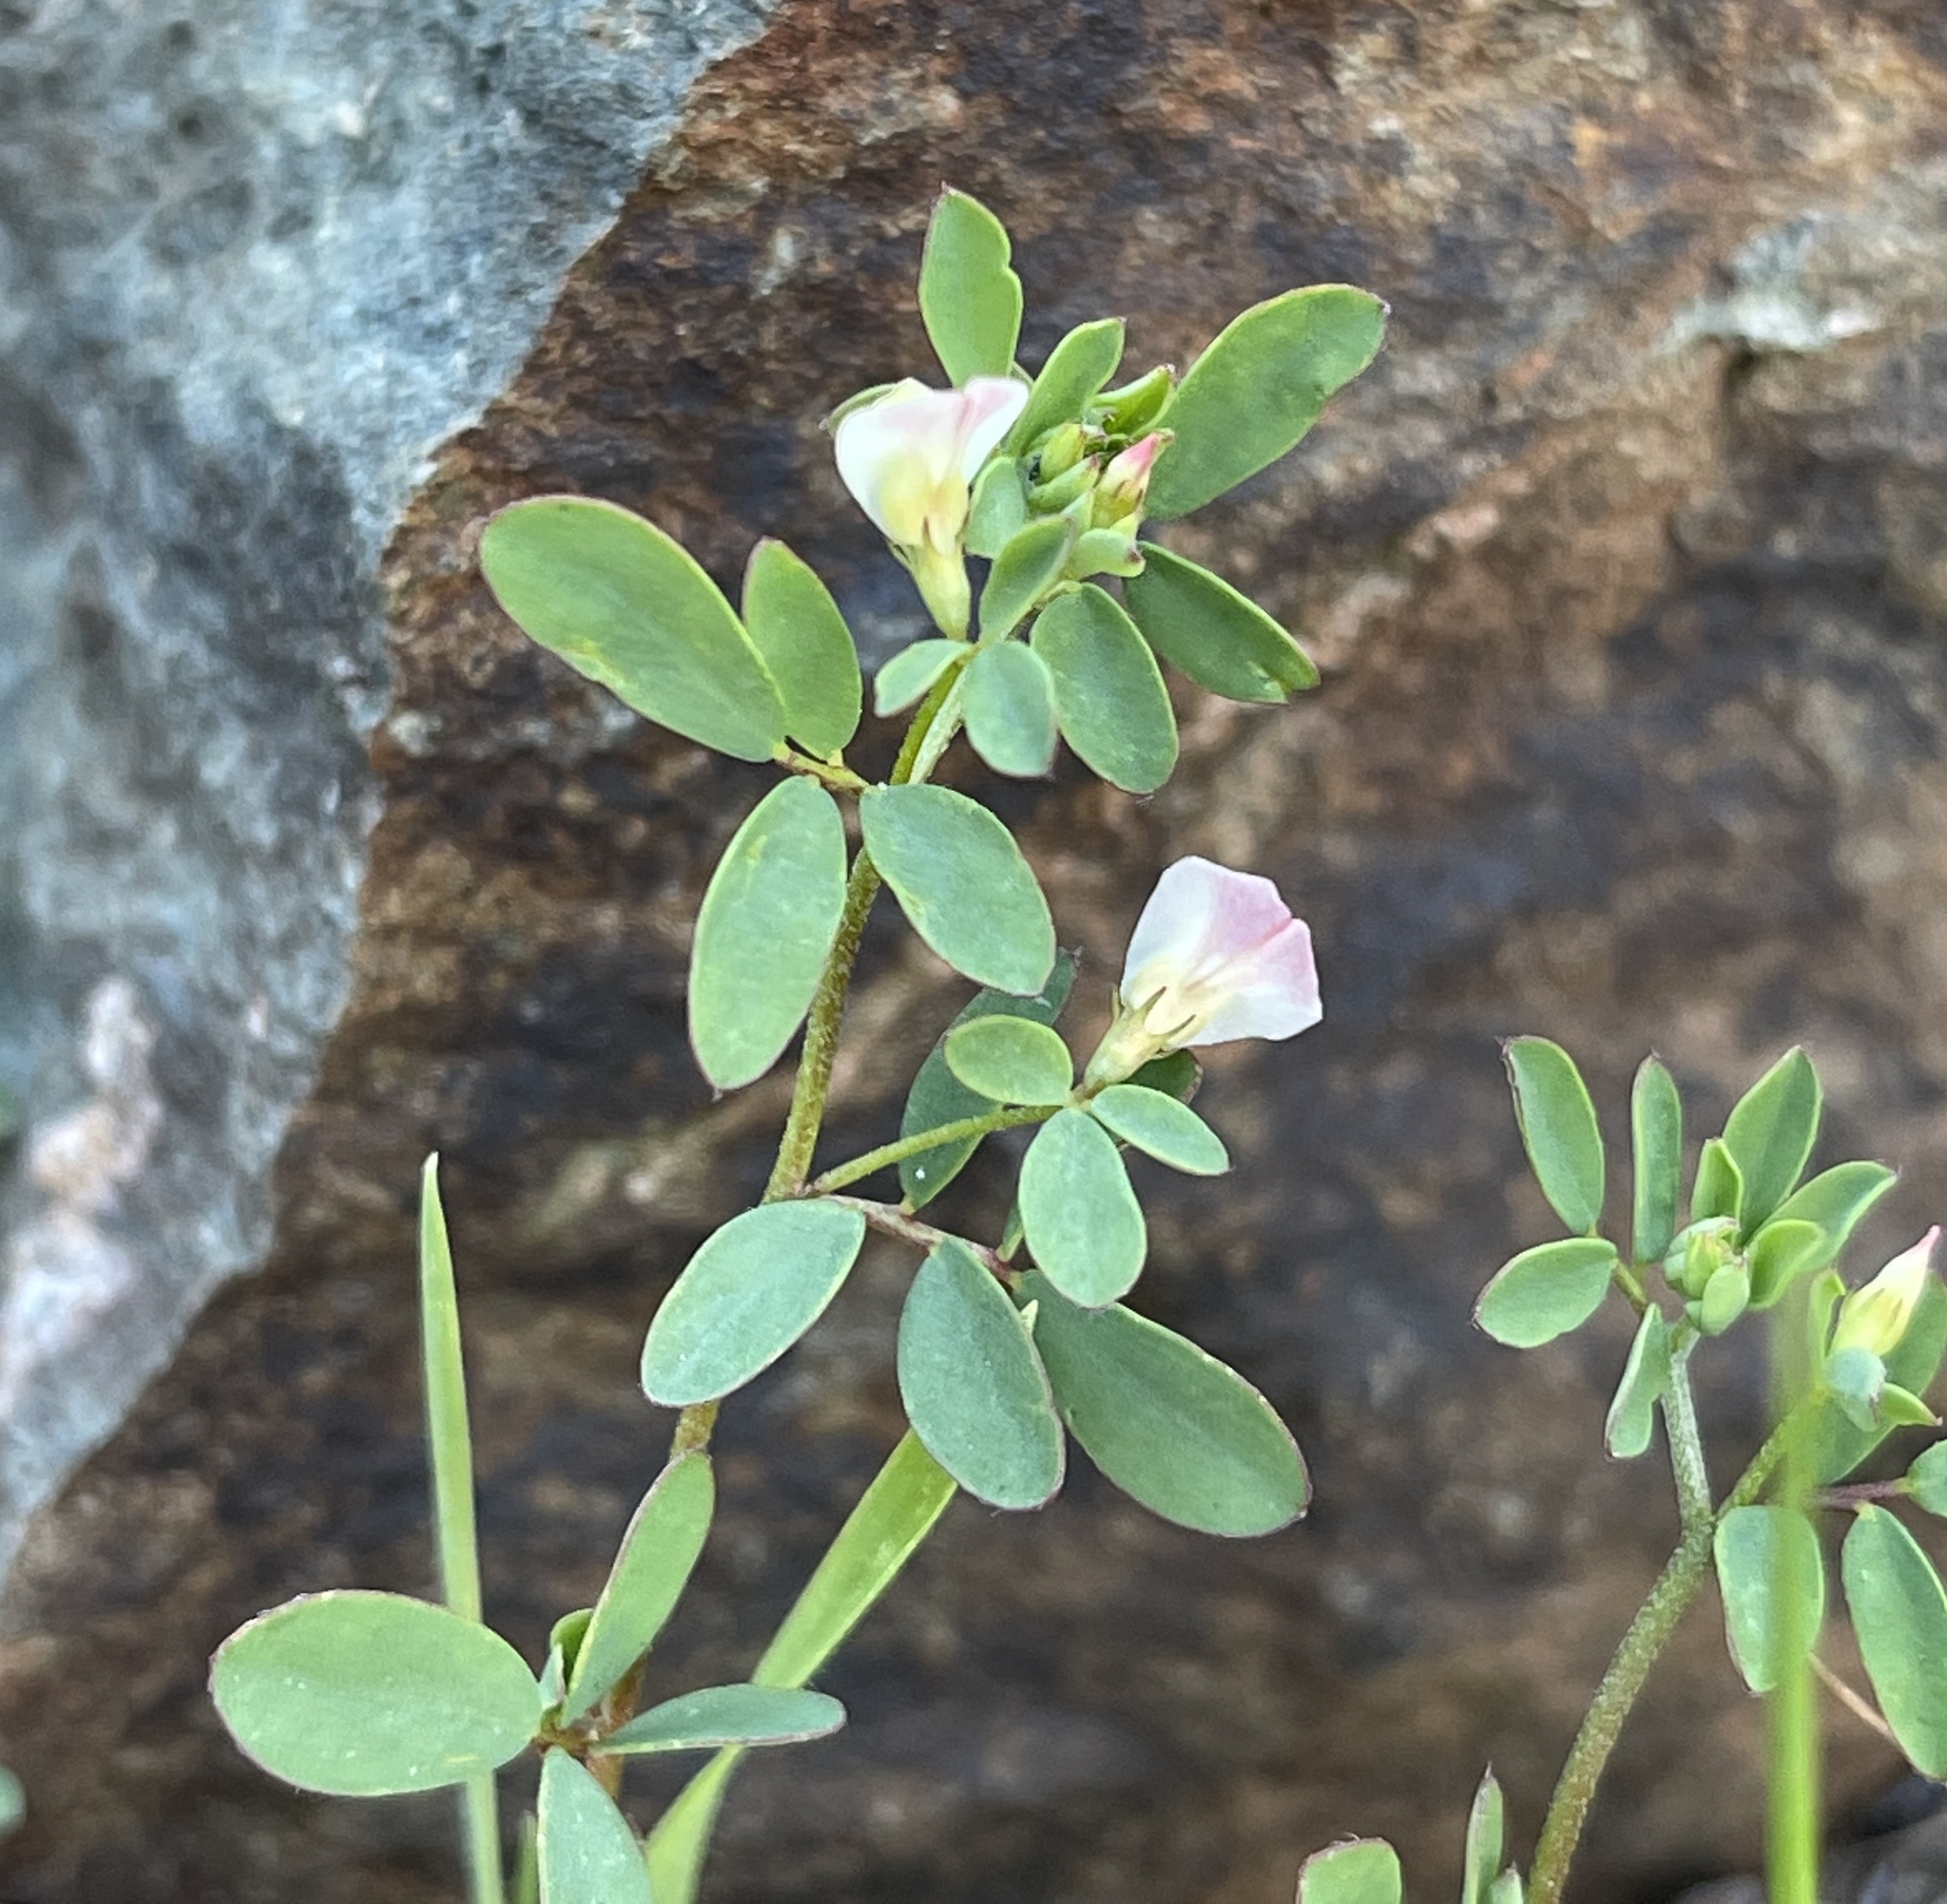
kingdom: Plantae
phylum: Tracheophyta
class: Magnoliopsida
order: Fabales
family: Fabaceae
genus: Acmispon
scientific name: Acmispon parviflorus
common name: Desert deer-vetch
